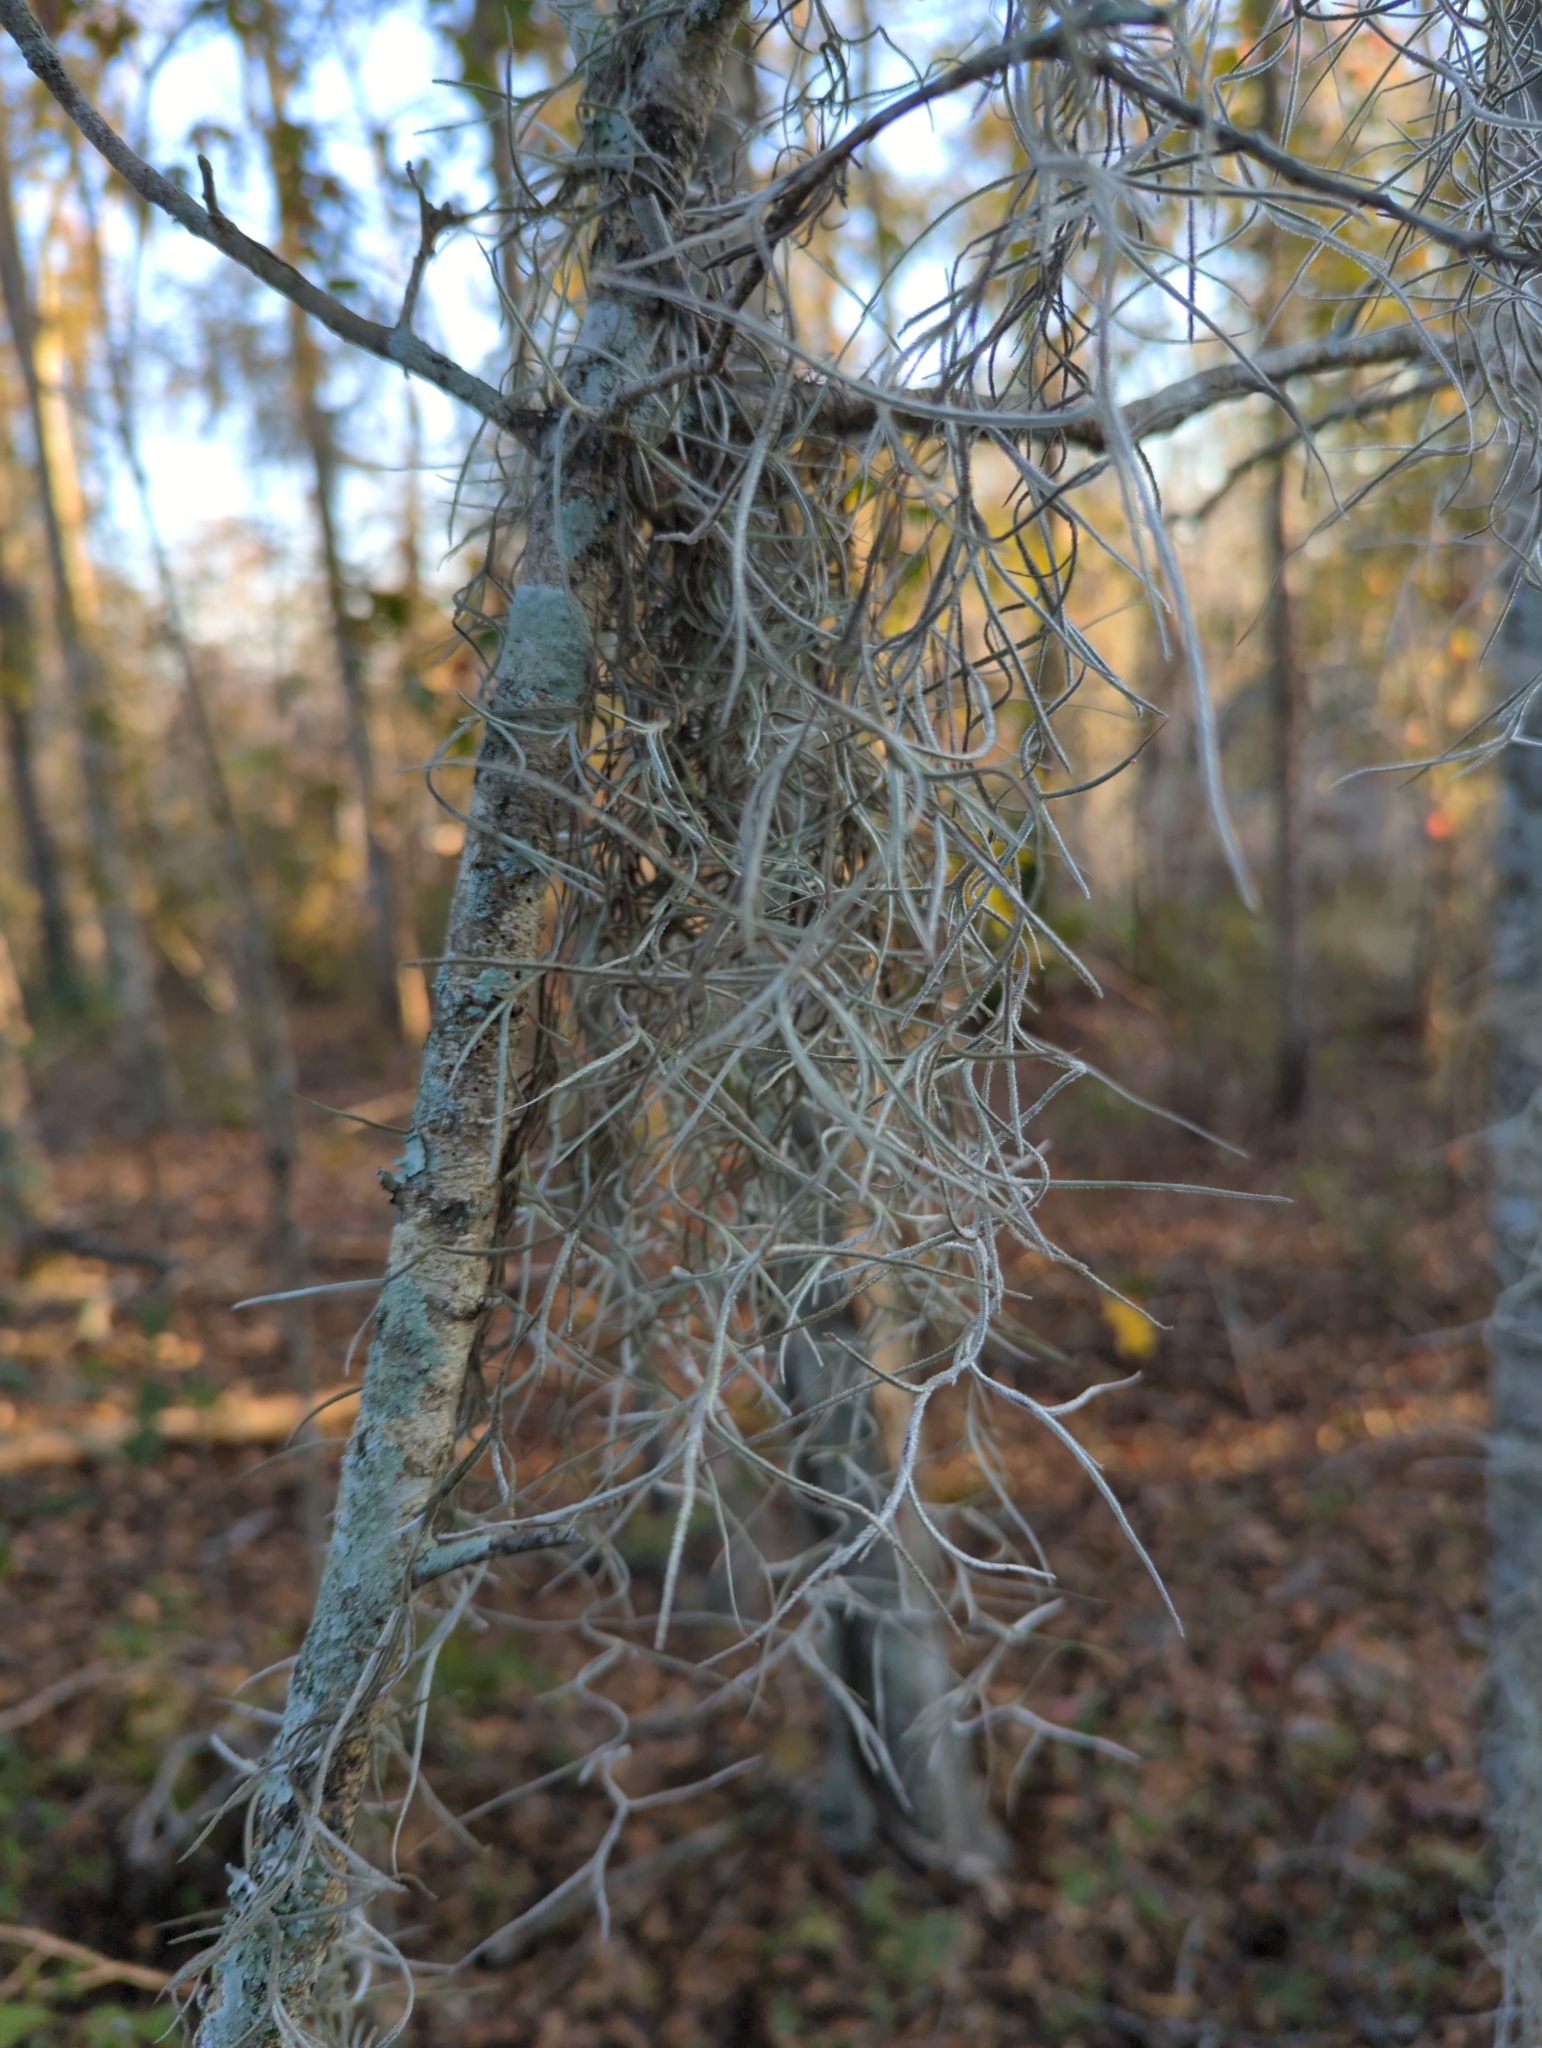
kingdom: Plantae
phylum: Tracheophyta
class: Liliopsida
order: Poales
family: Bromeliaceae
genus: Tillandsia
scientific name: Tillandsia usneoides
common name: Spanish moss
